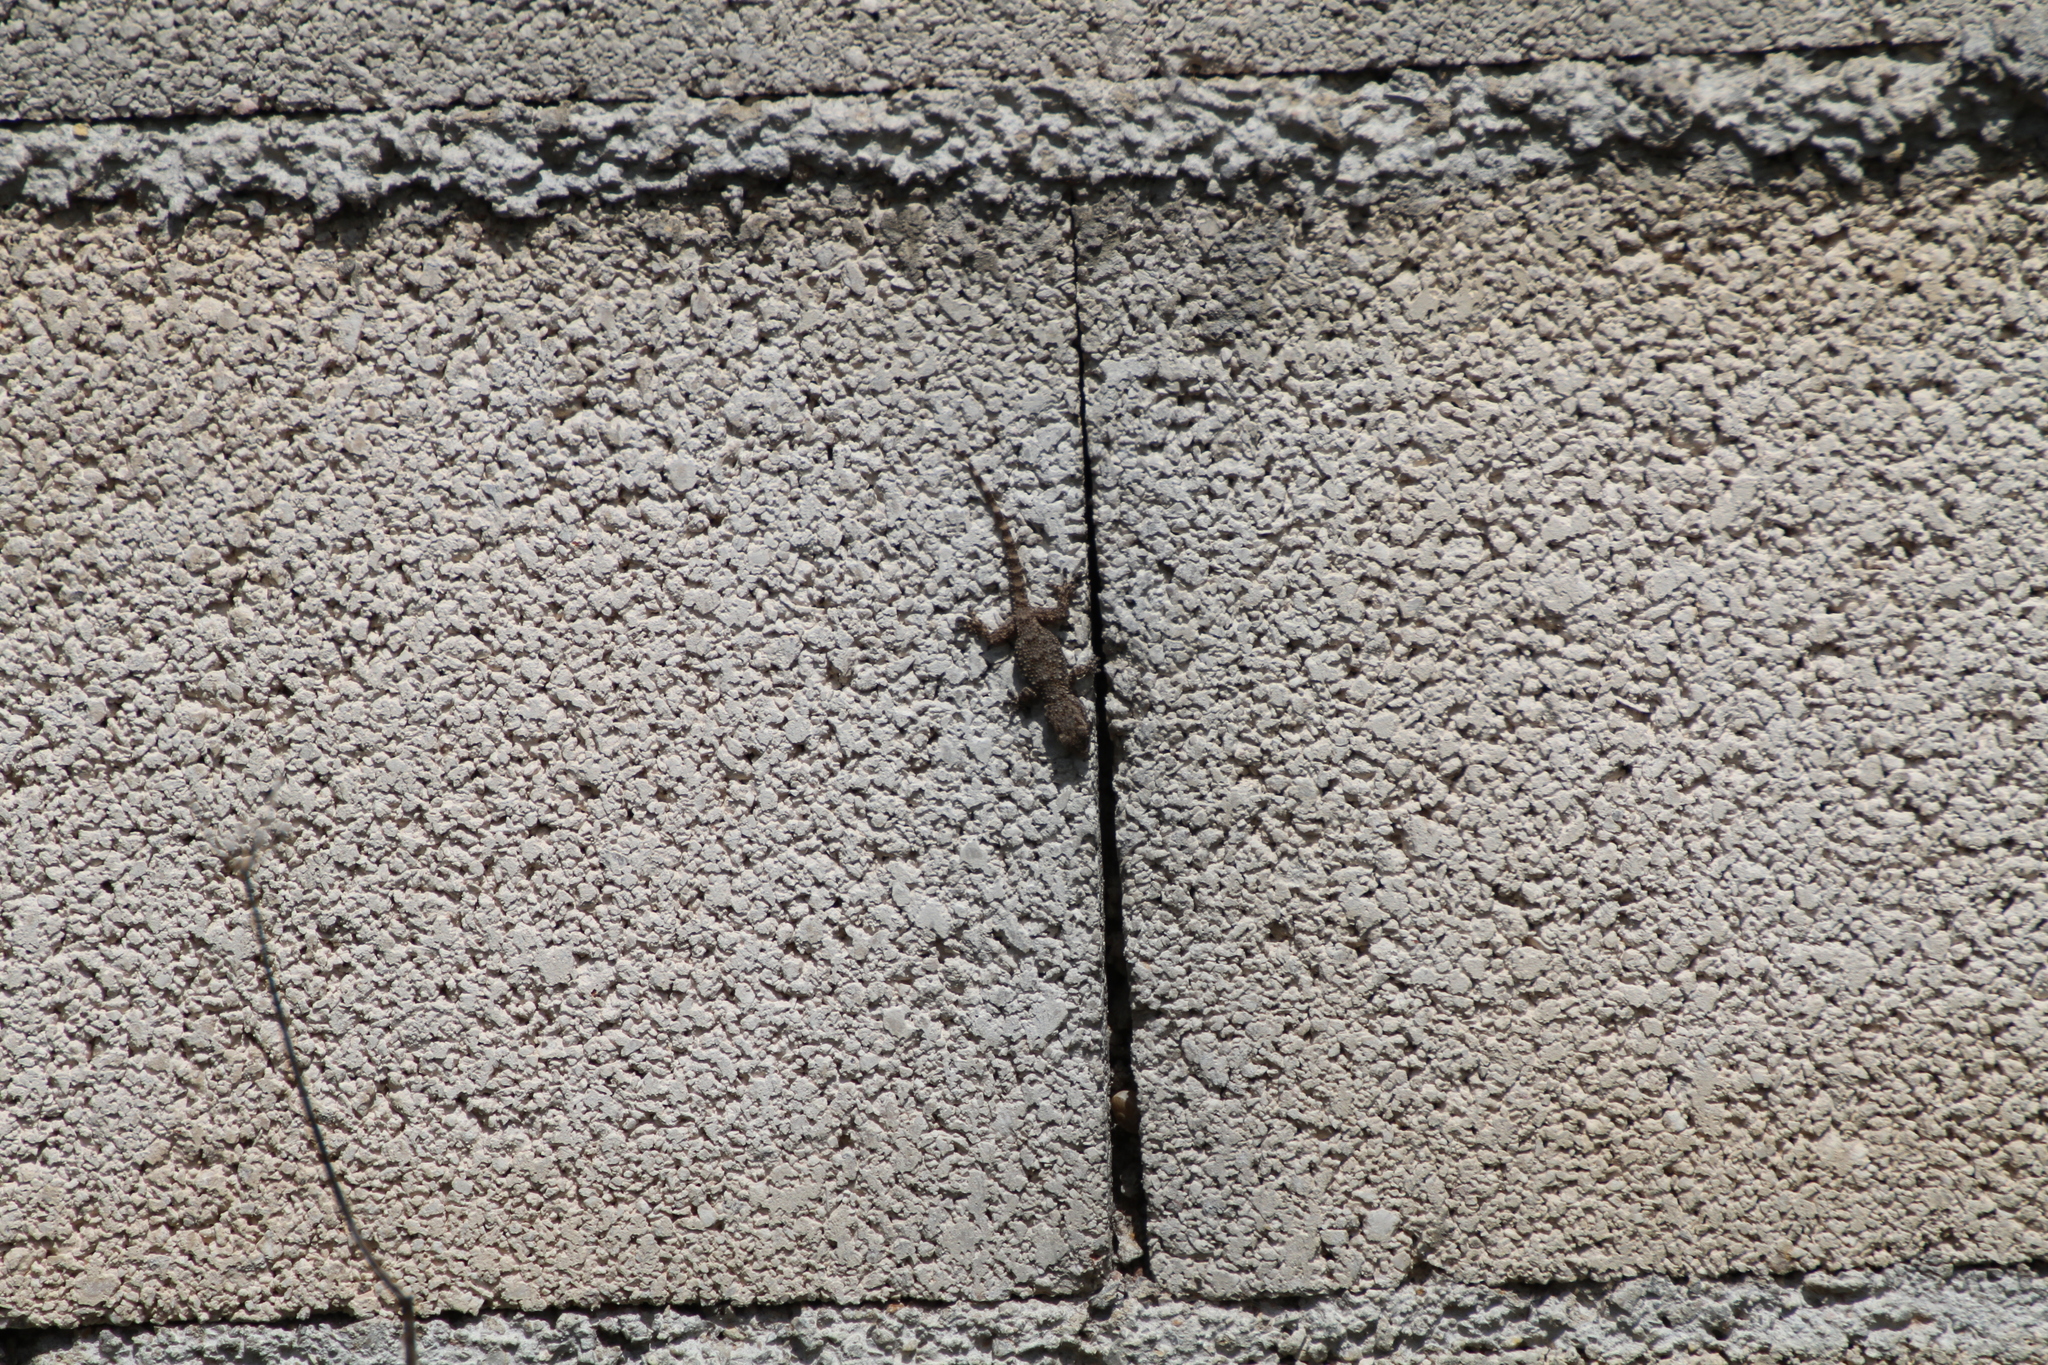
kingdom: Animalia
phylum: Chordata
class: Squamata
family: Phyllodactylidae
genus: Tarentola
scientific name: Tarentola mauritanica
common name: Moorish gecko
